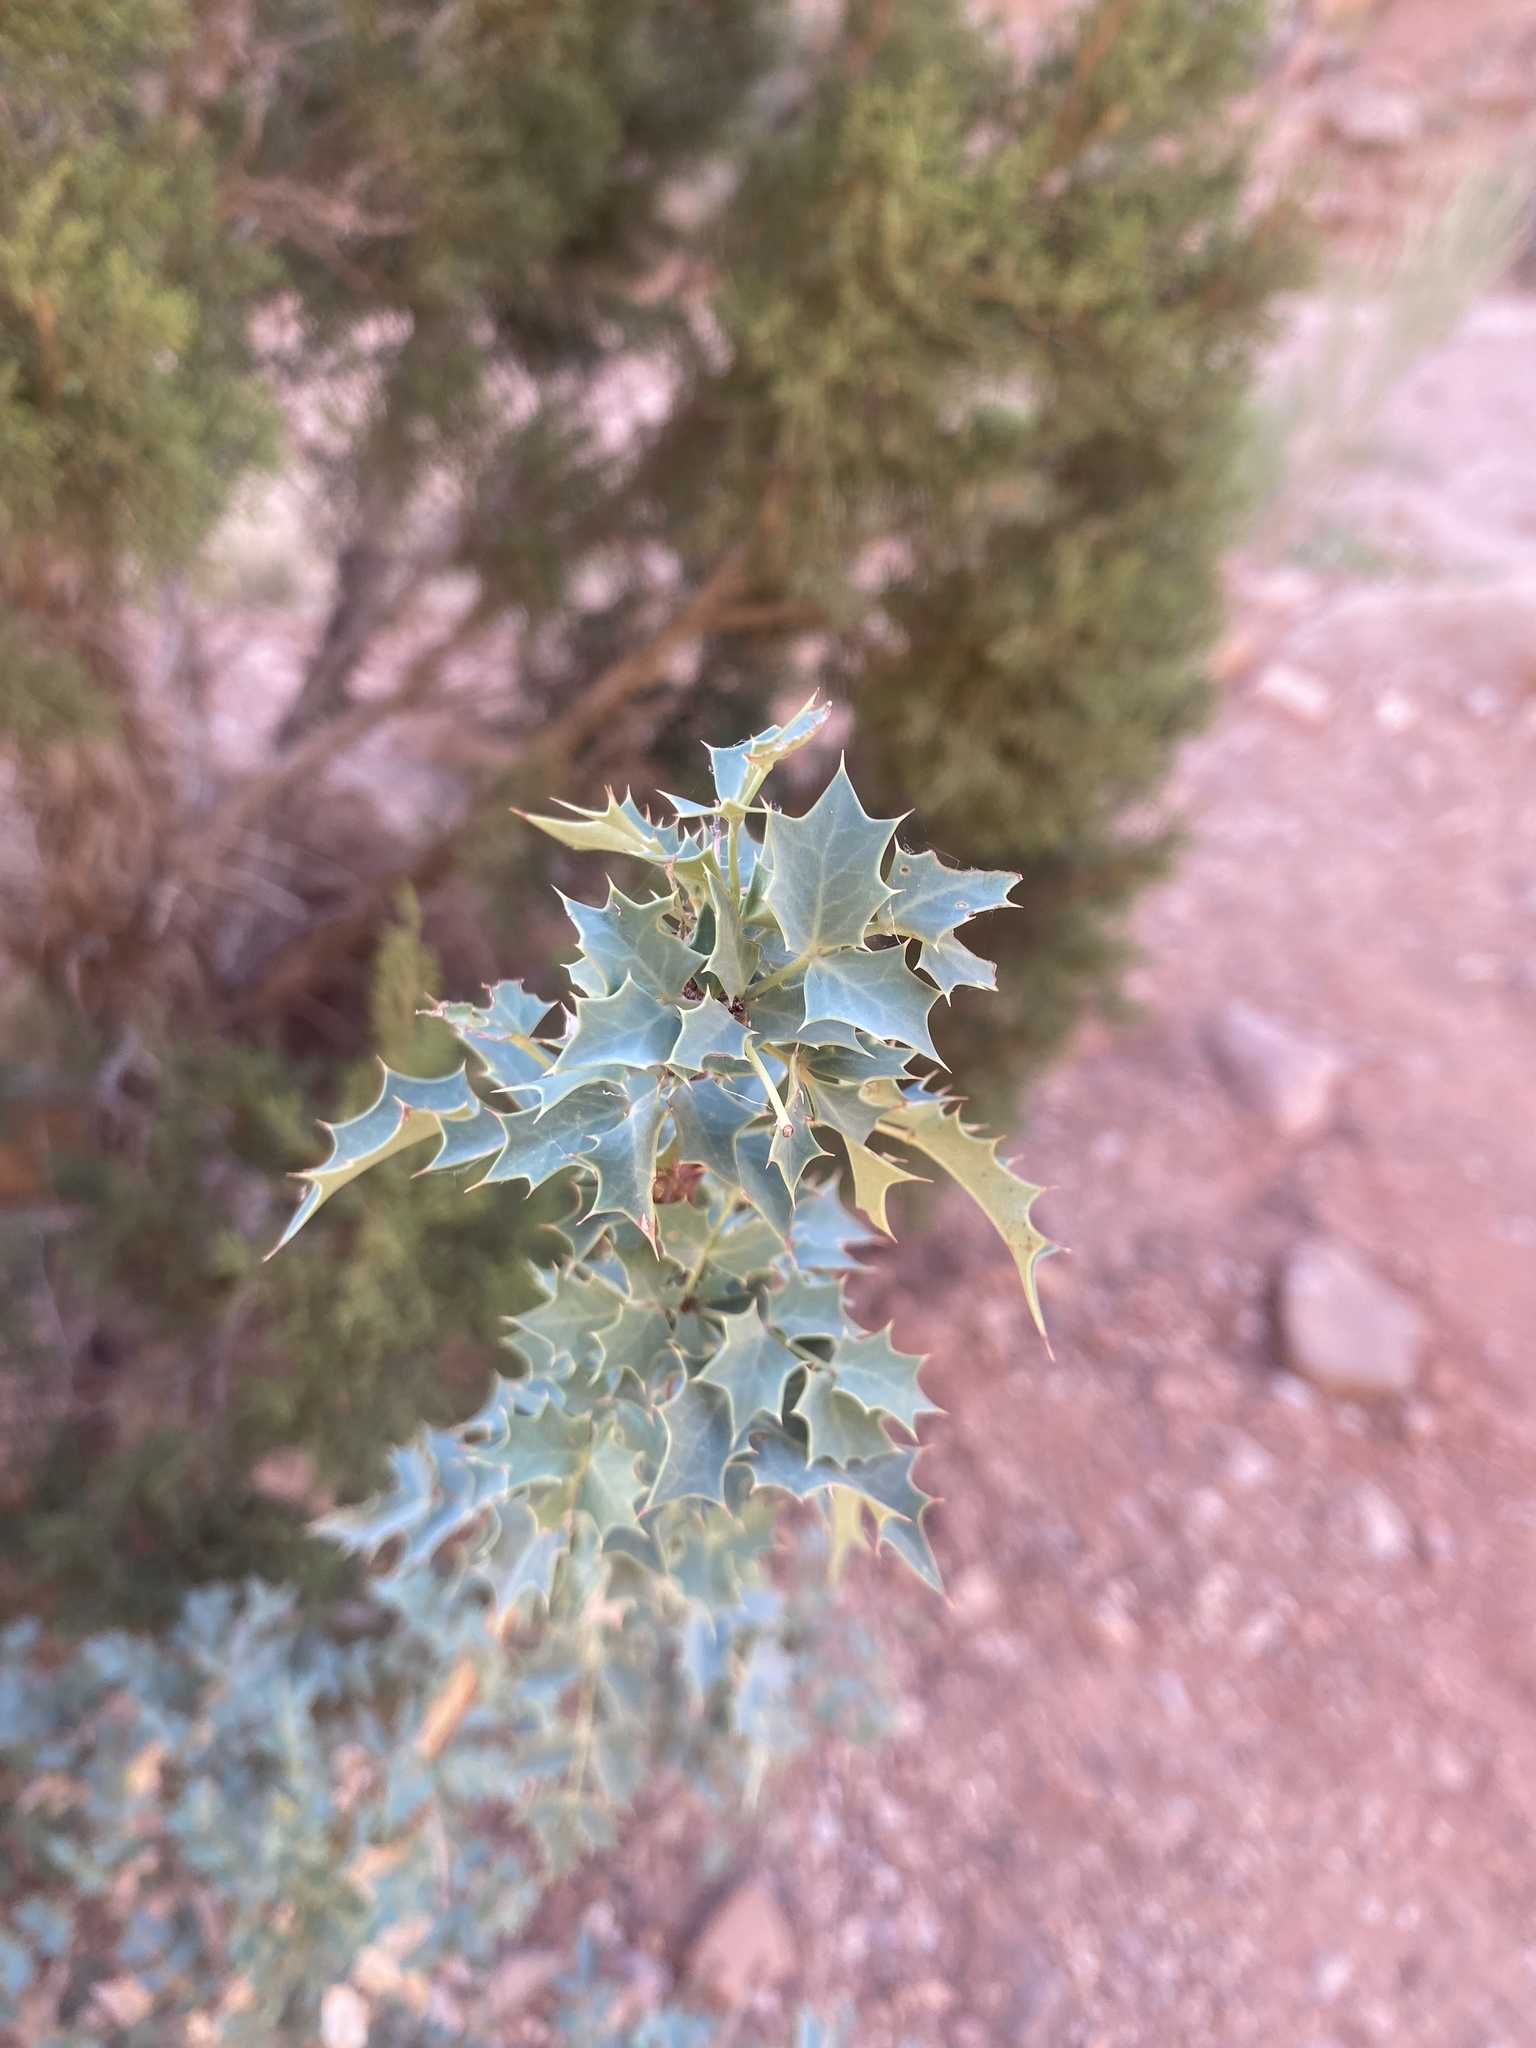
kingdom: Plantae
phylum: Tracheophyta
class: Magnoliopsida
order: Ranunculales
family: Berberidaceae
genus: Alloberberis
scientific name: Alloberberis fremontii
